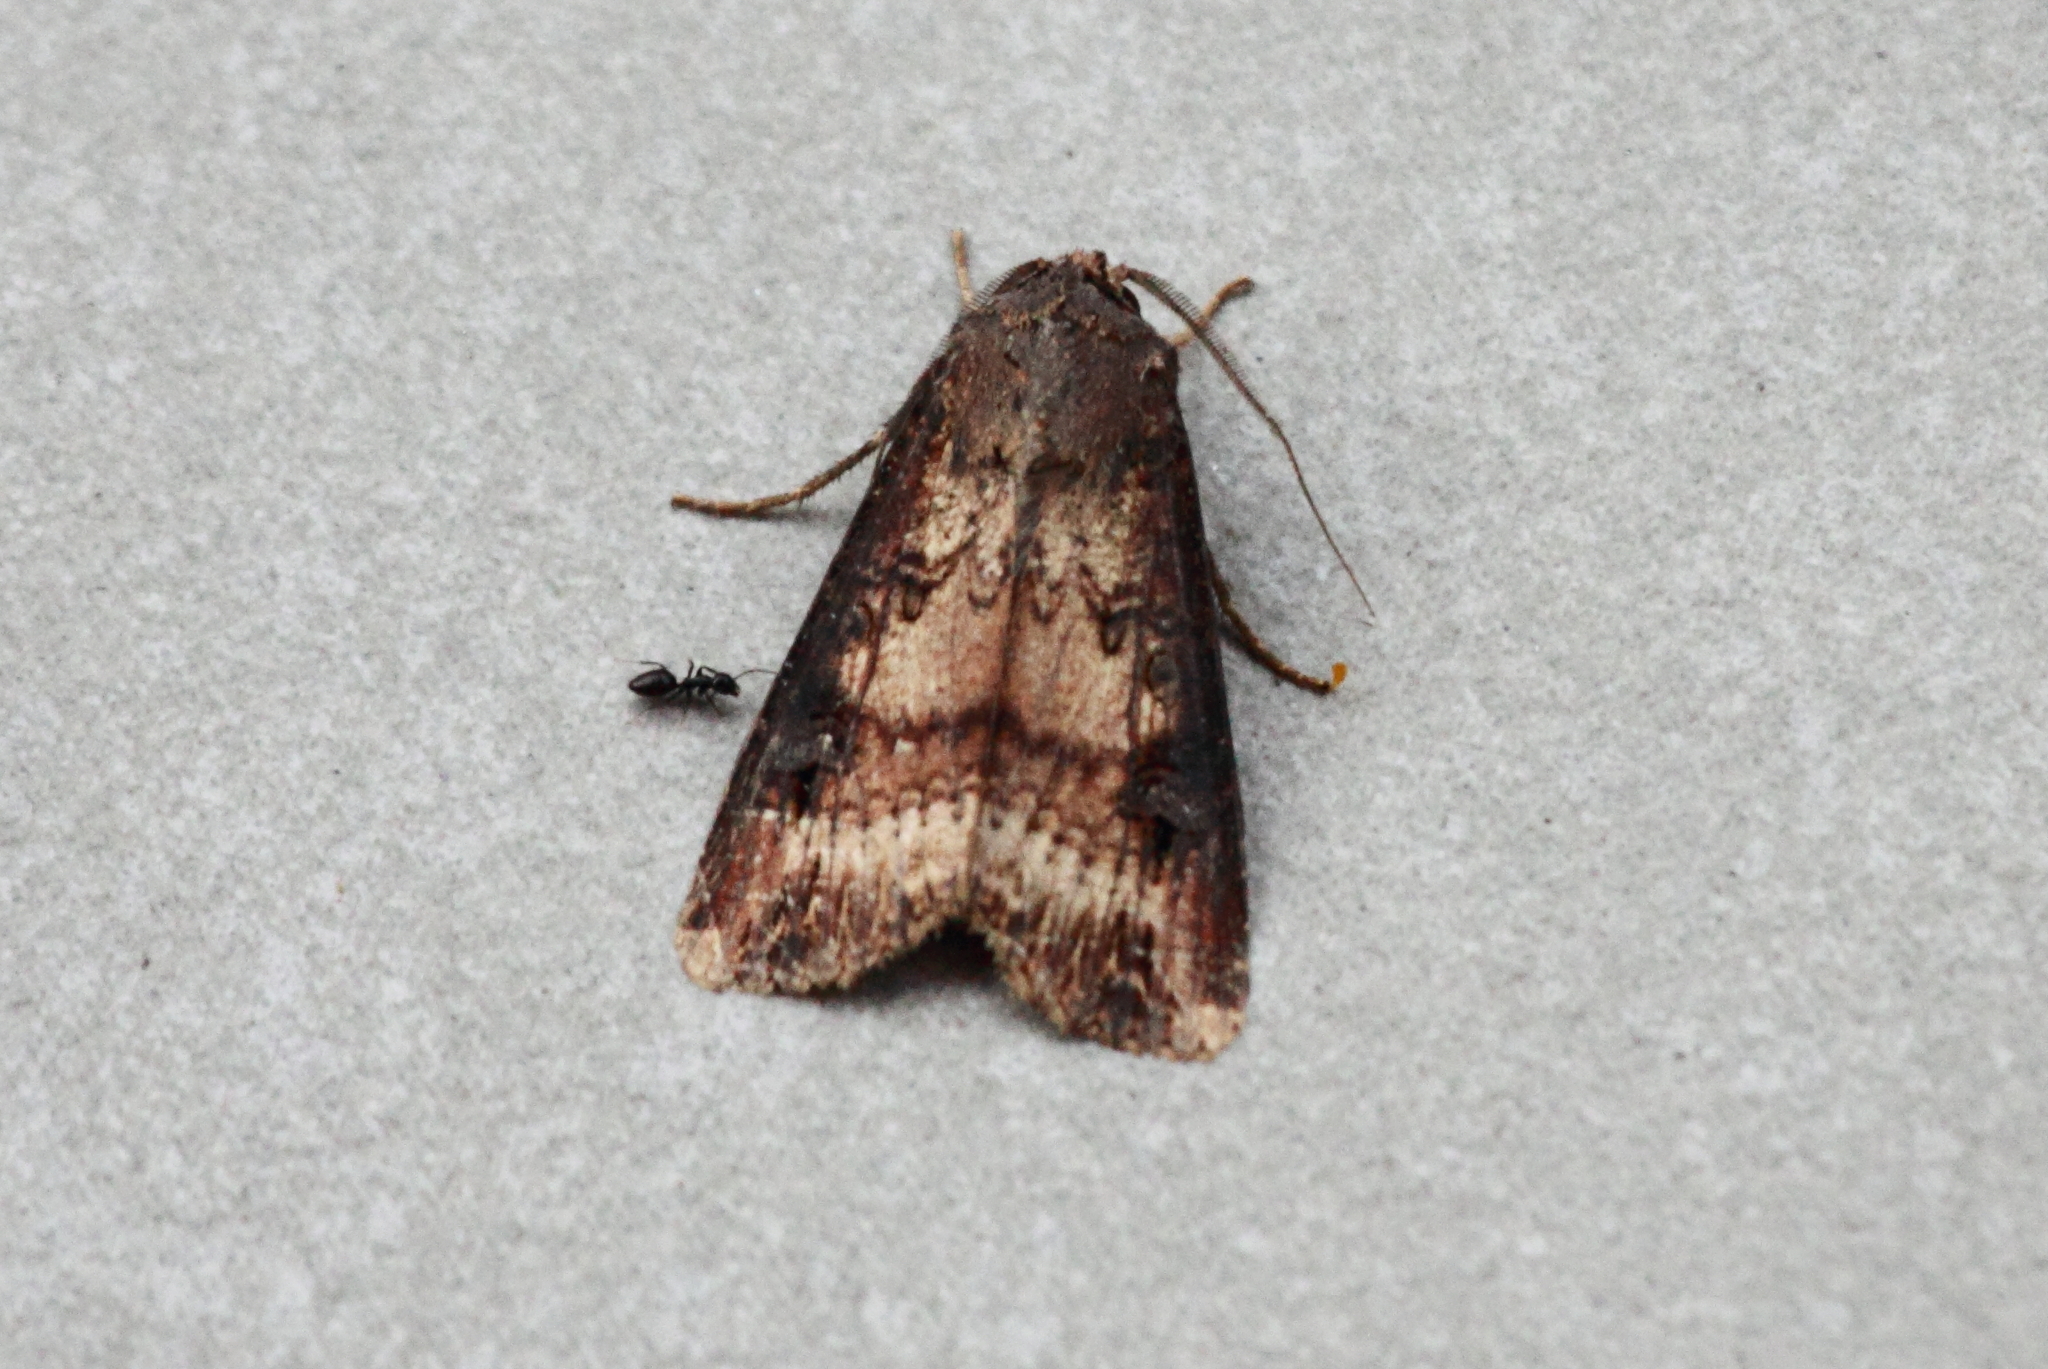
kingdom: Animalia
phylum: Arthropoda
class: Insecta
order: Lepidoptera
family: Noctuidae
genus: Agrotis
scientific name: Agrotis ipsilon
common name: Dark sword-grass
